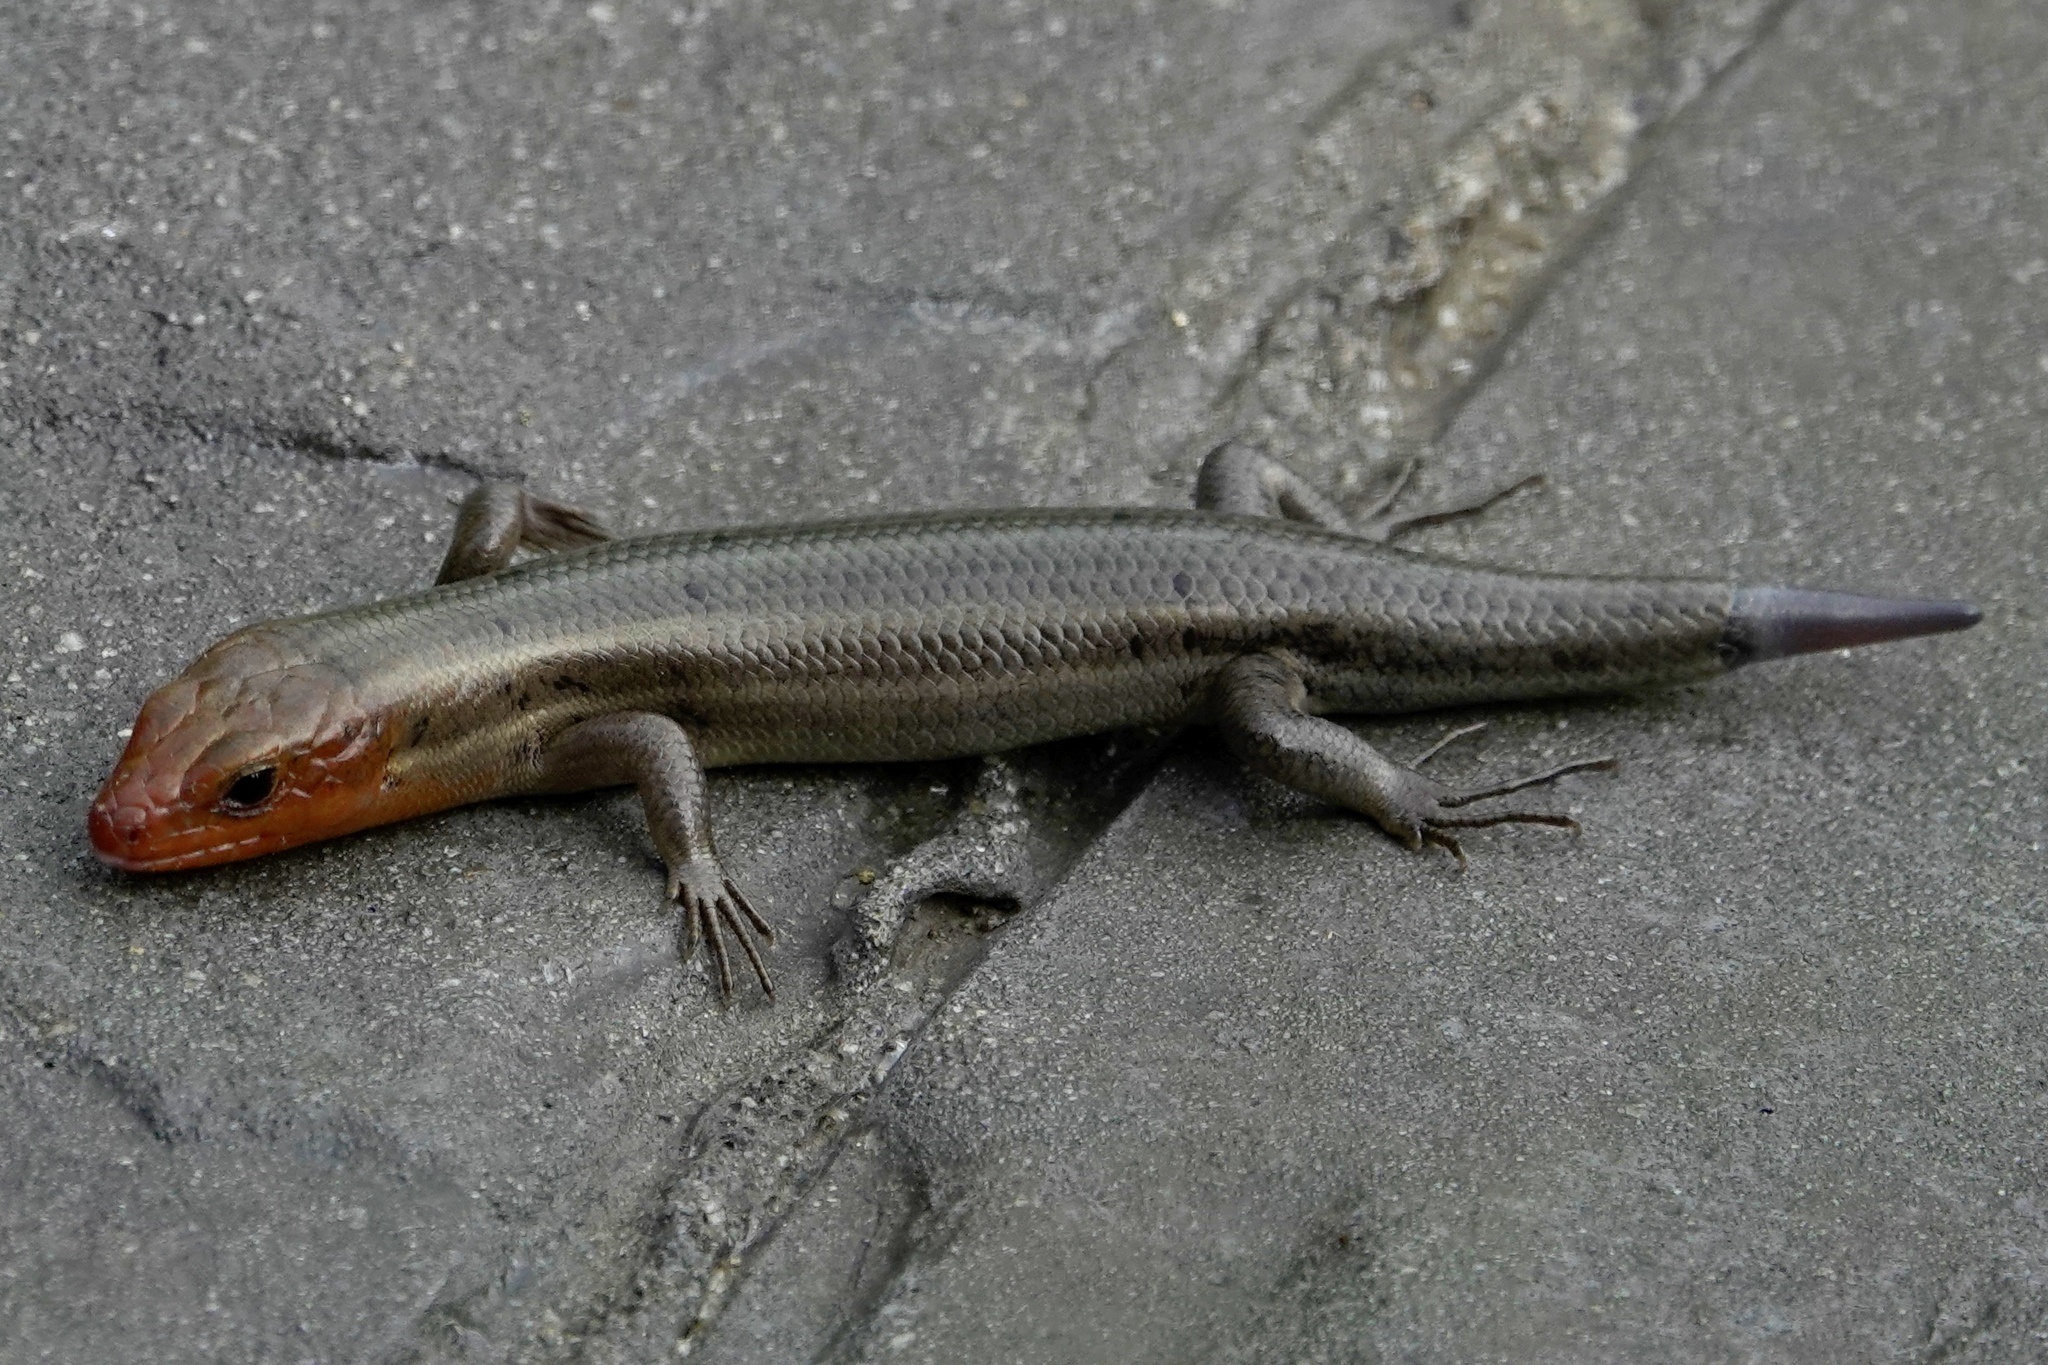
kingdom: Animalia
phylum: Chordata
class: Squamata
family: Scincidae
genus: Plestiodon
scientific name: Plestiodon fasciatus
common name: Five-lined skink
